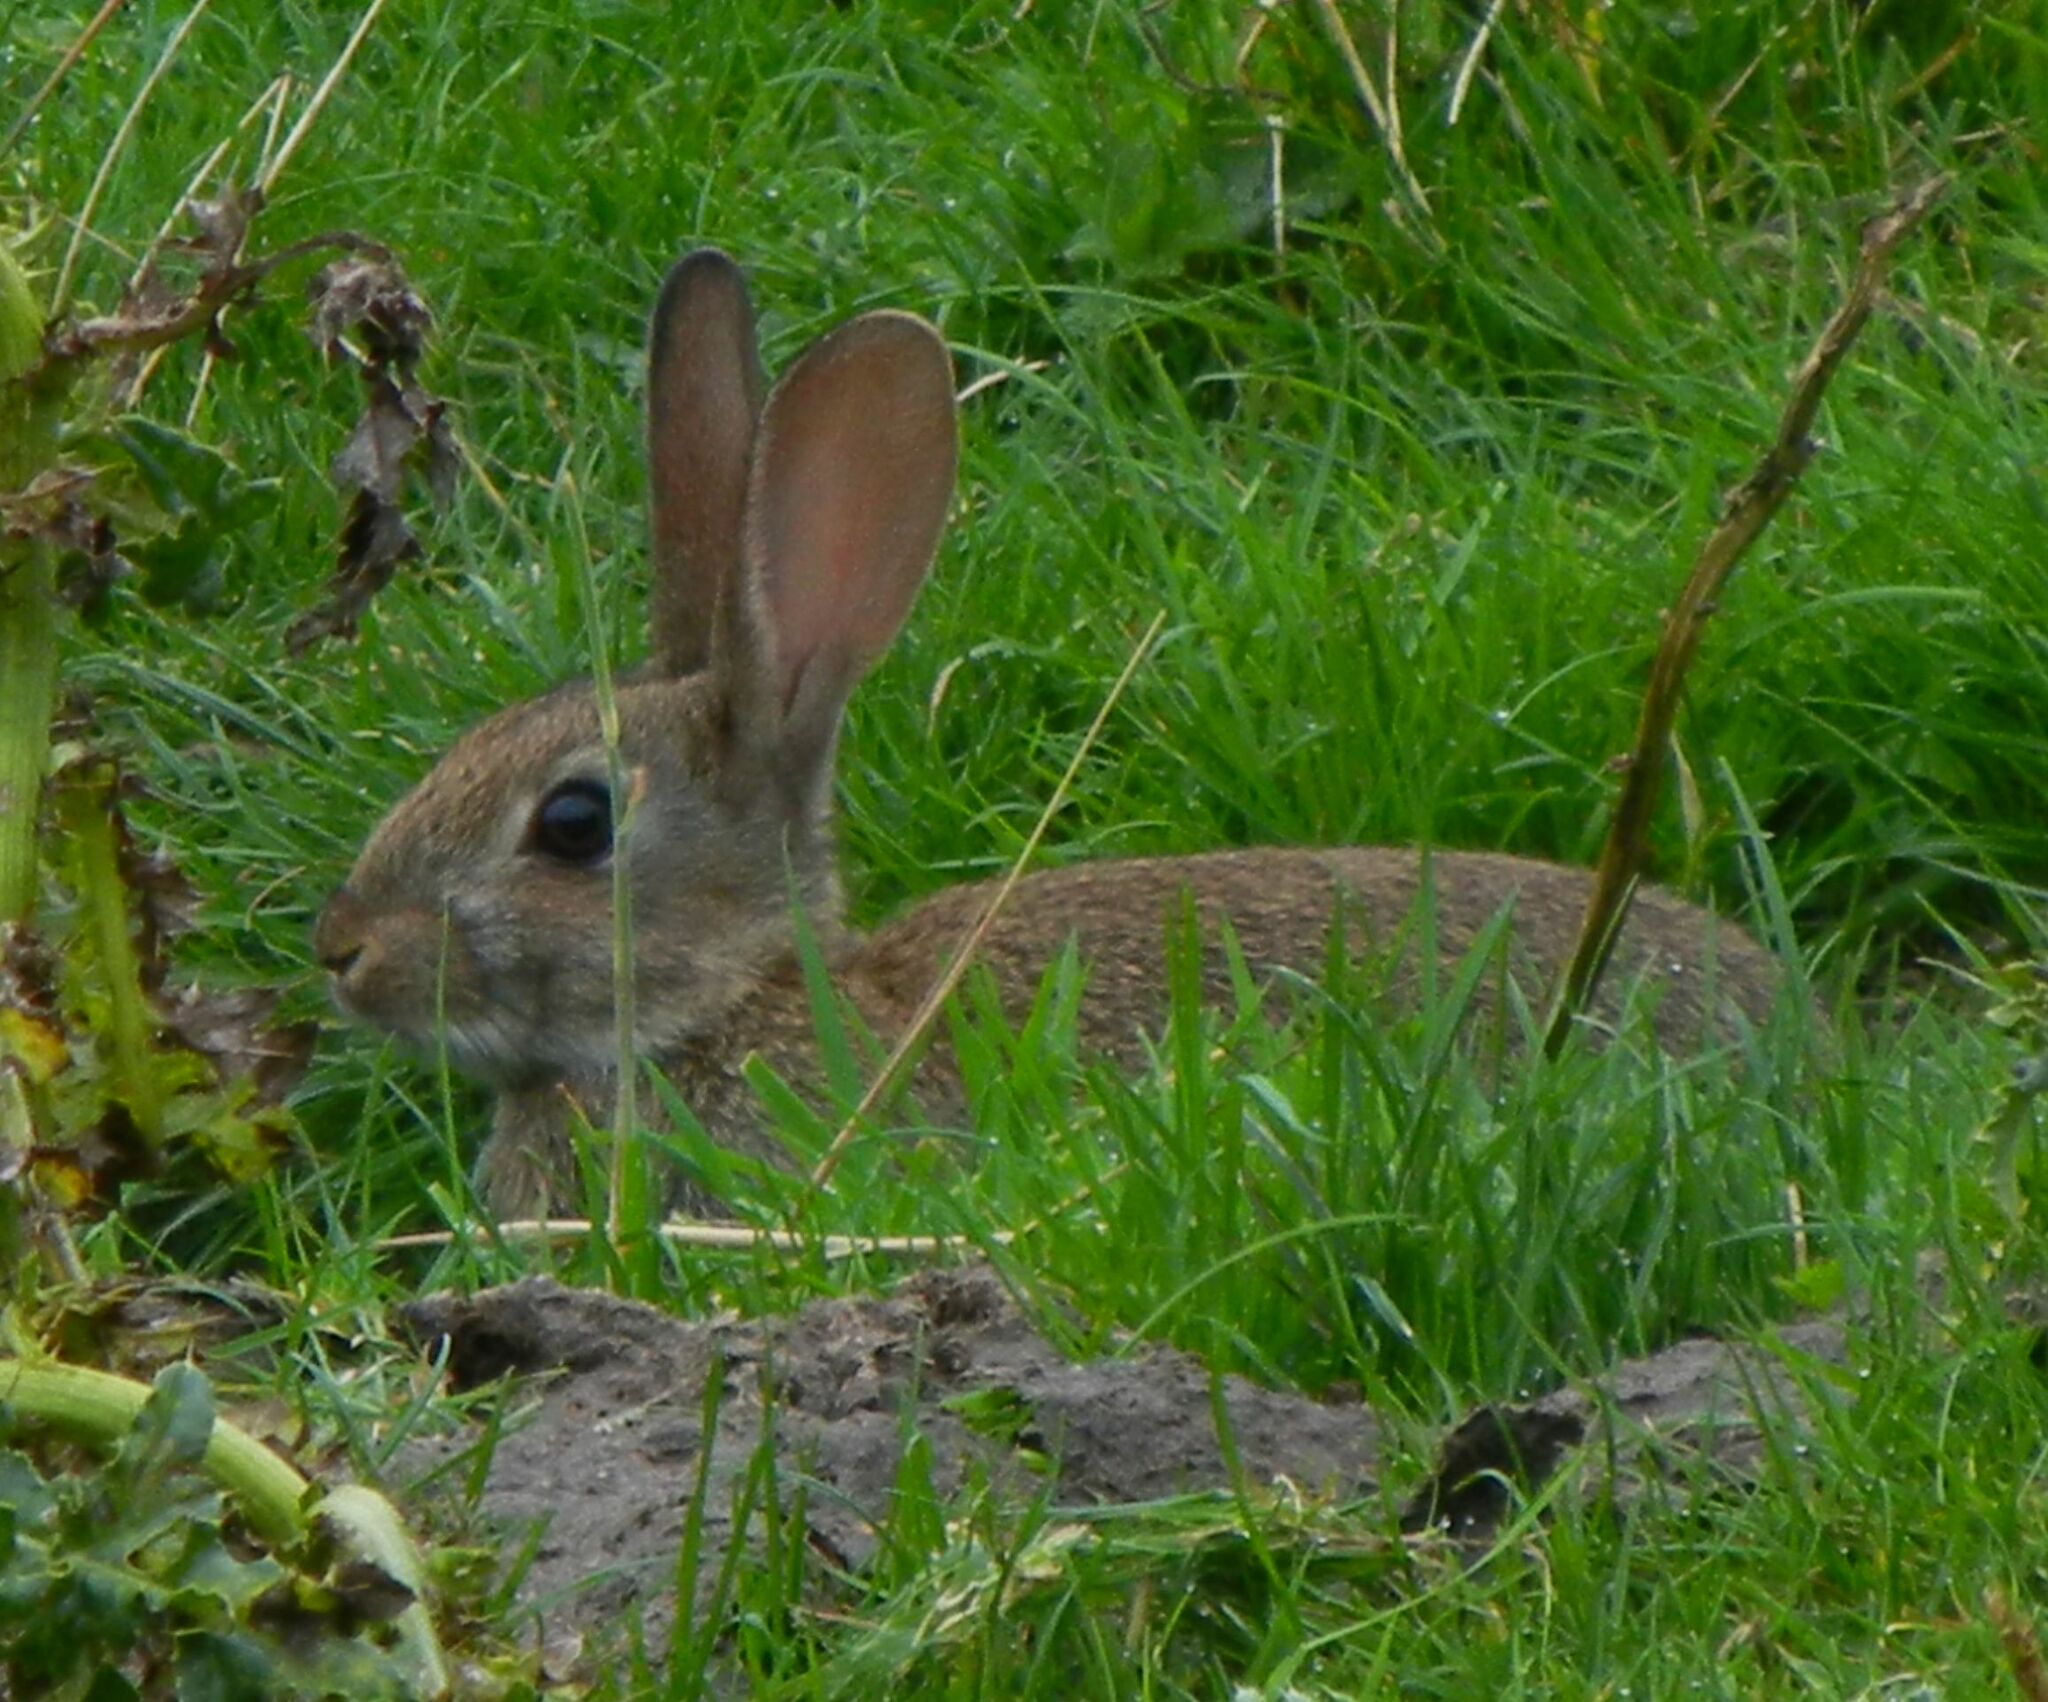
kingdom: Animalia
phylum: Chordata
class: Mammalia
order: Lagomorpha
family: Leporidae
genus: Oryctolagus
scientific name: Oryctolagus cuniculus
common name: European rabbit
